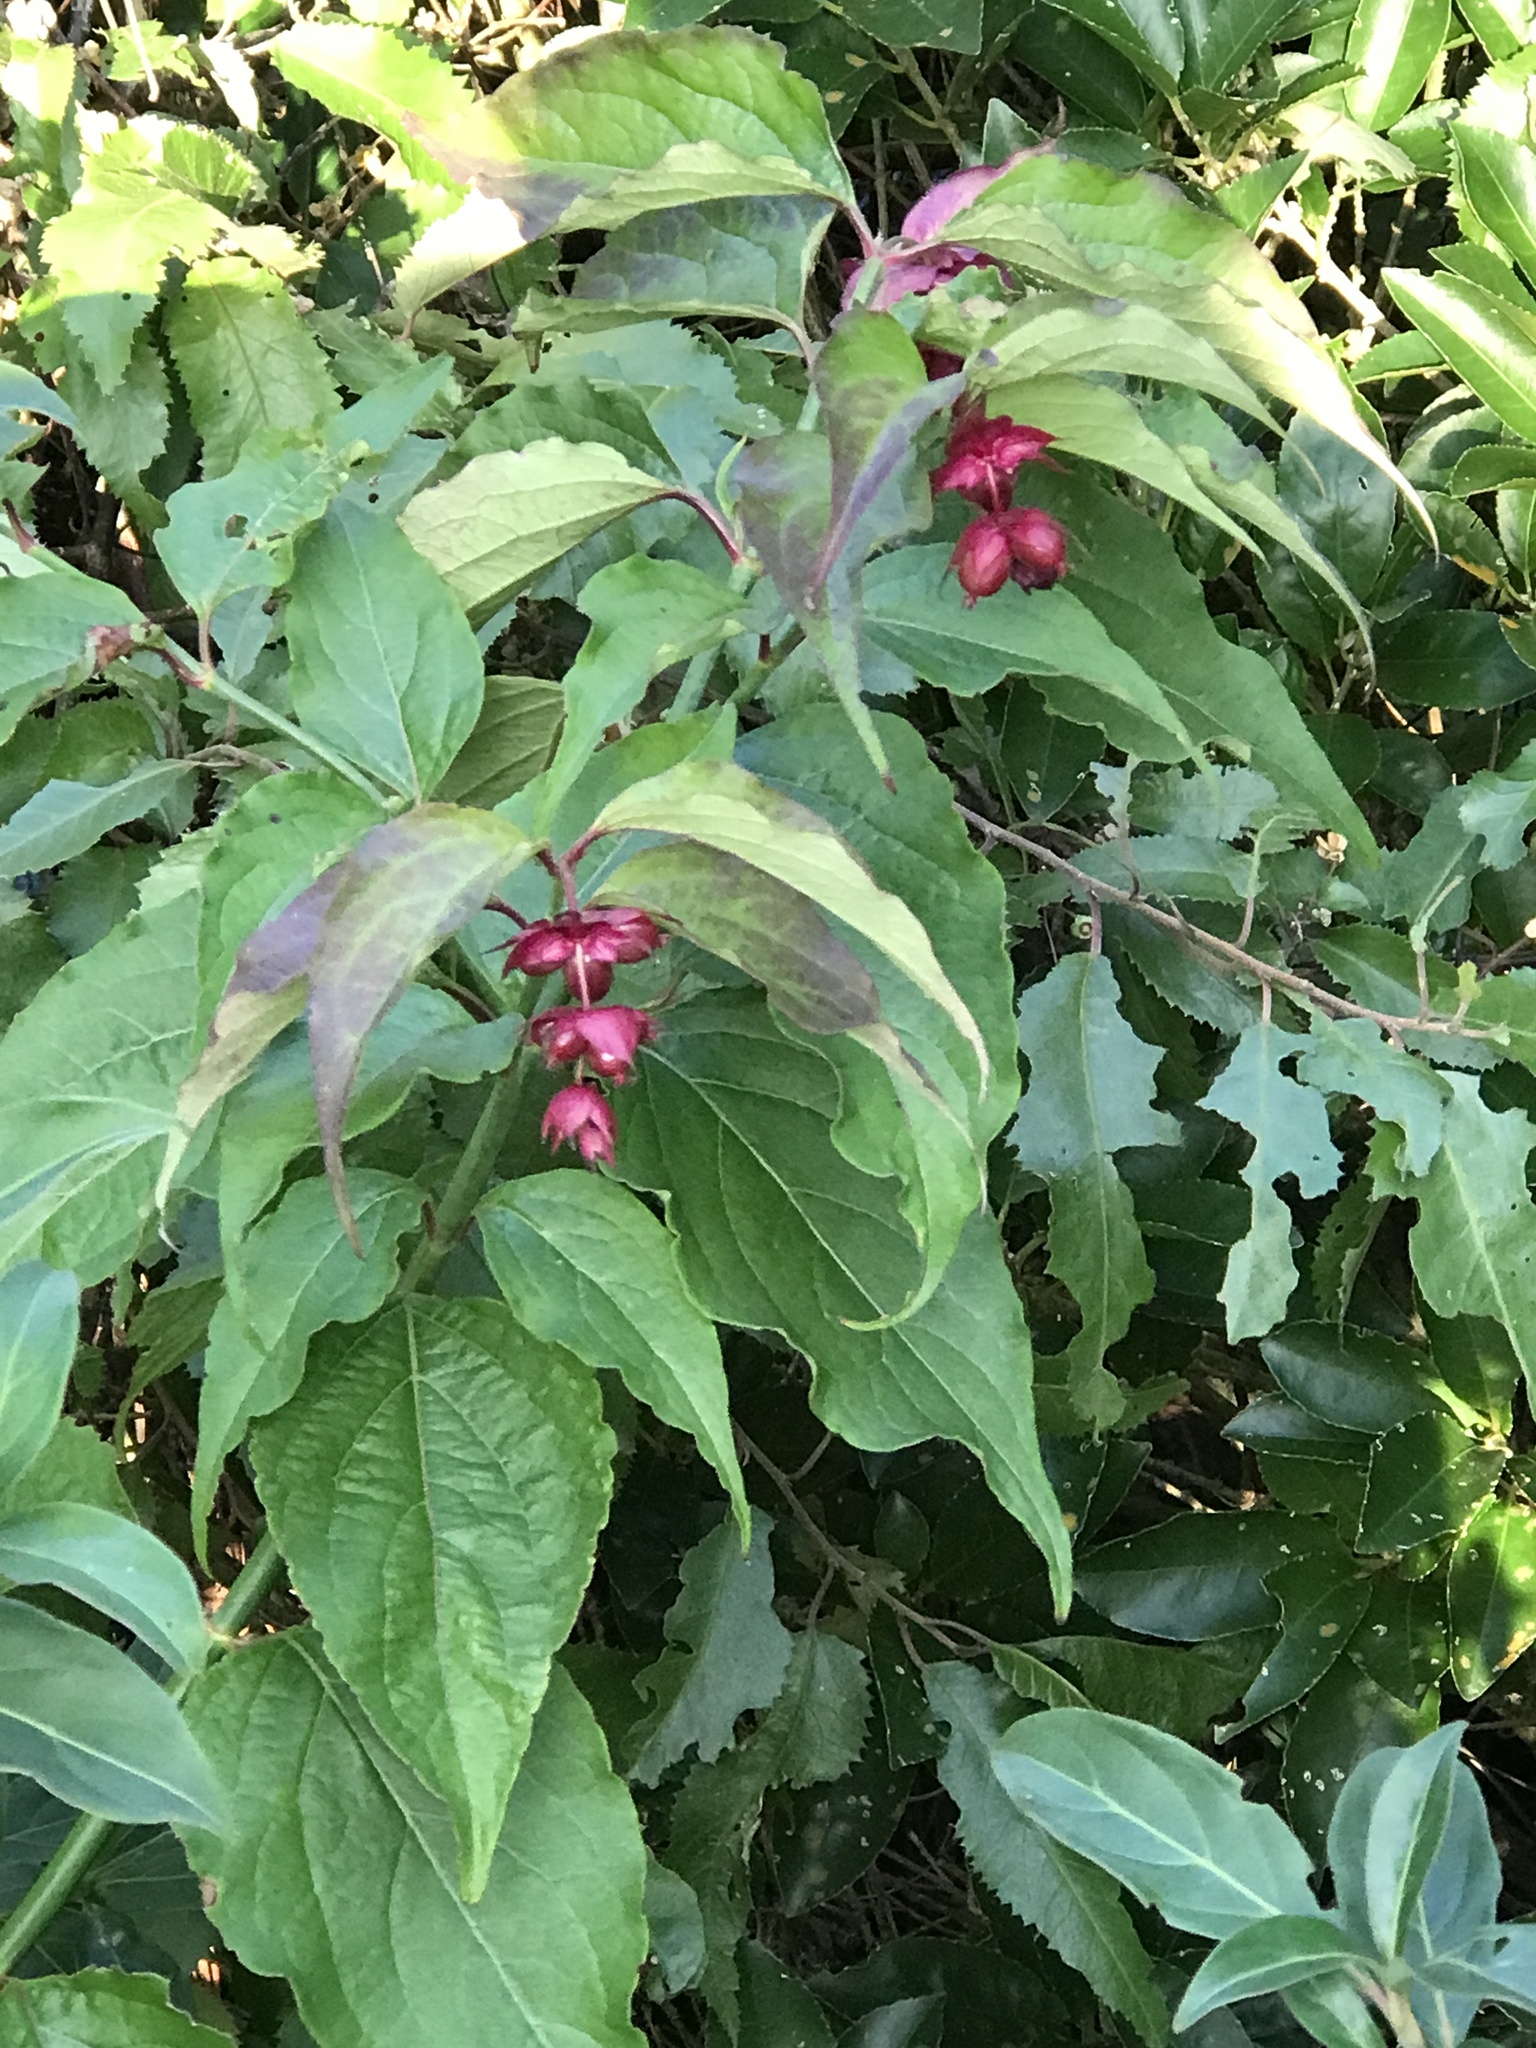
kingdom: Plantae
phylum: Tracheophyta
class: Magnoliopsida
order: Dipsacales
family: Caprifoliaceae
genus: Leycesteria
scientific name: Leycesteria formosa
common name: Himalayan honeysuckle
